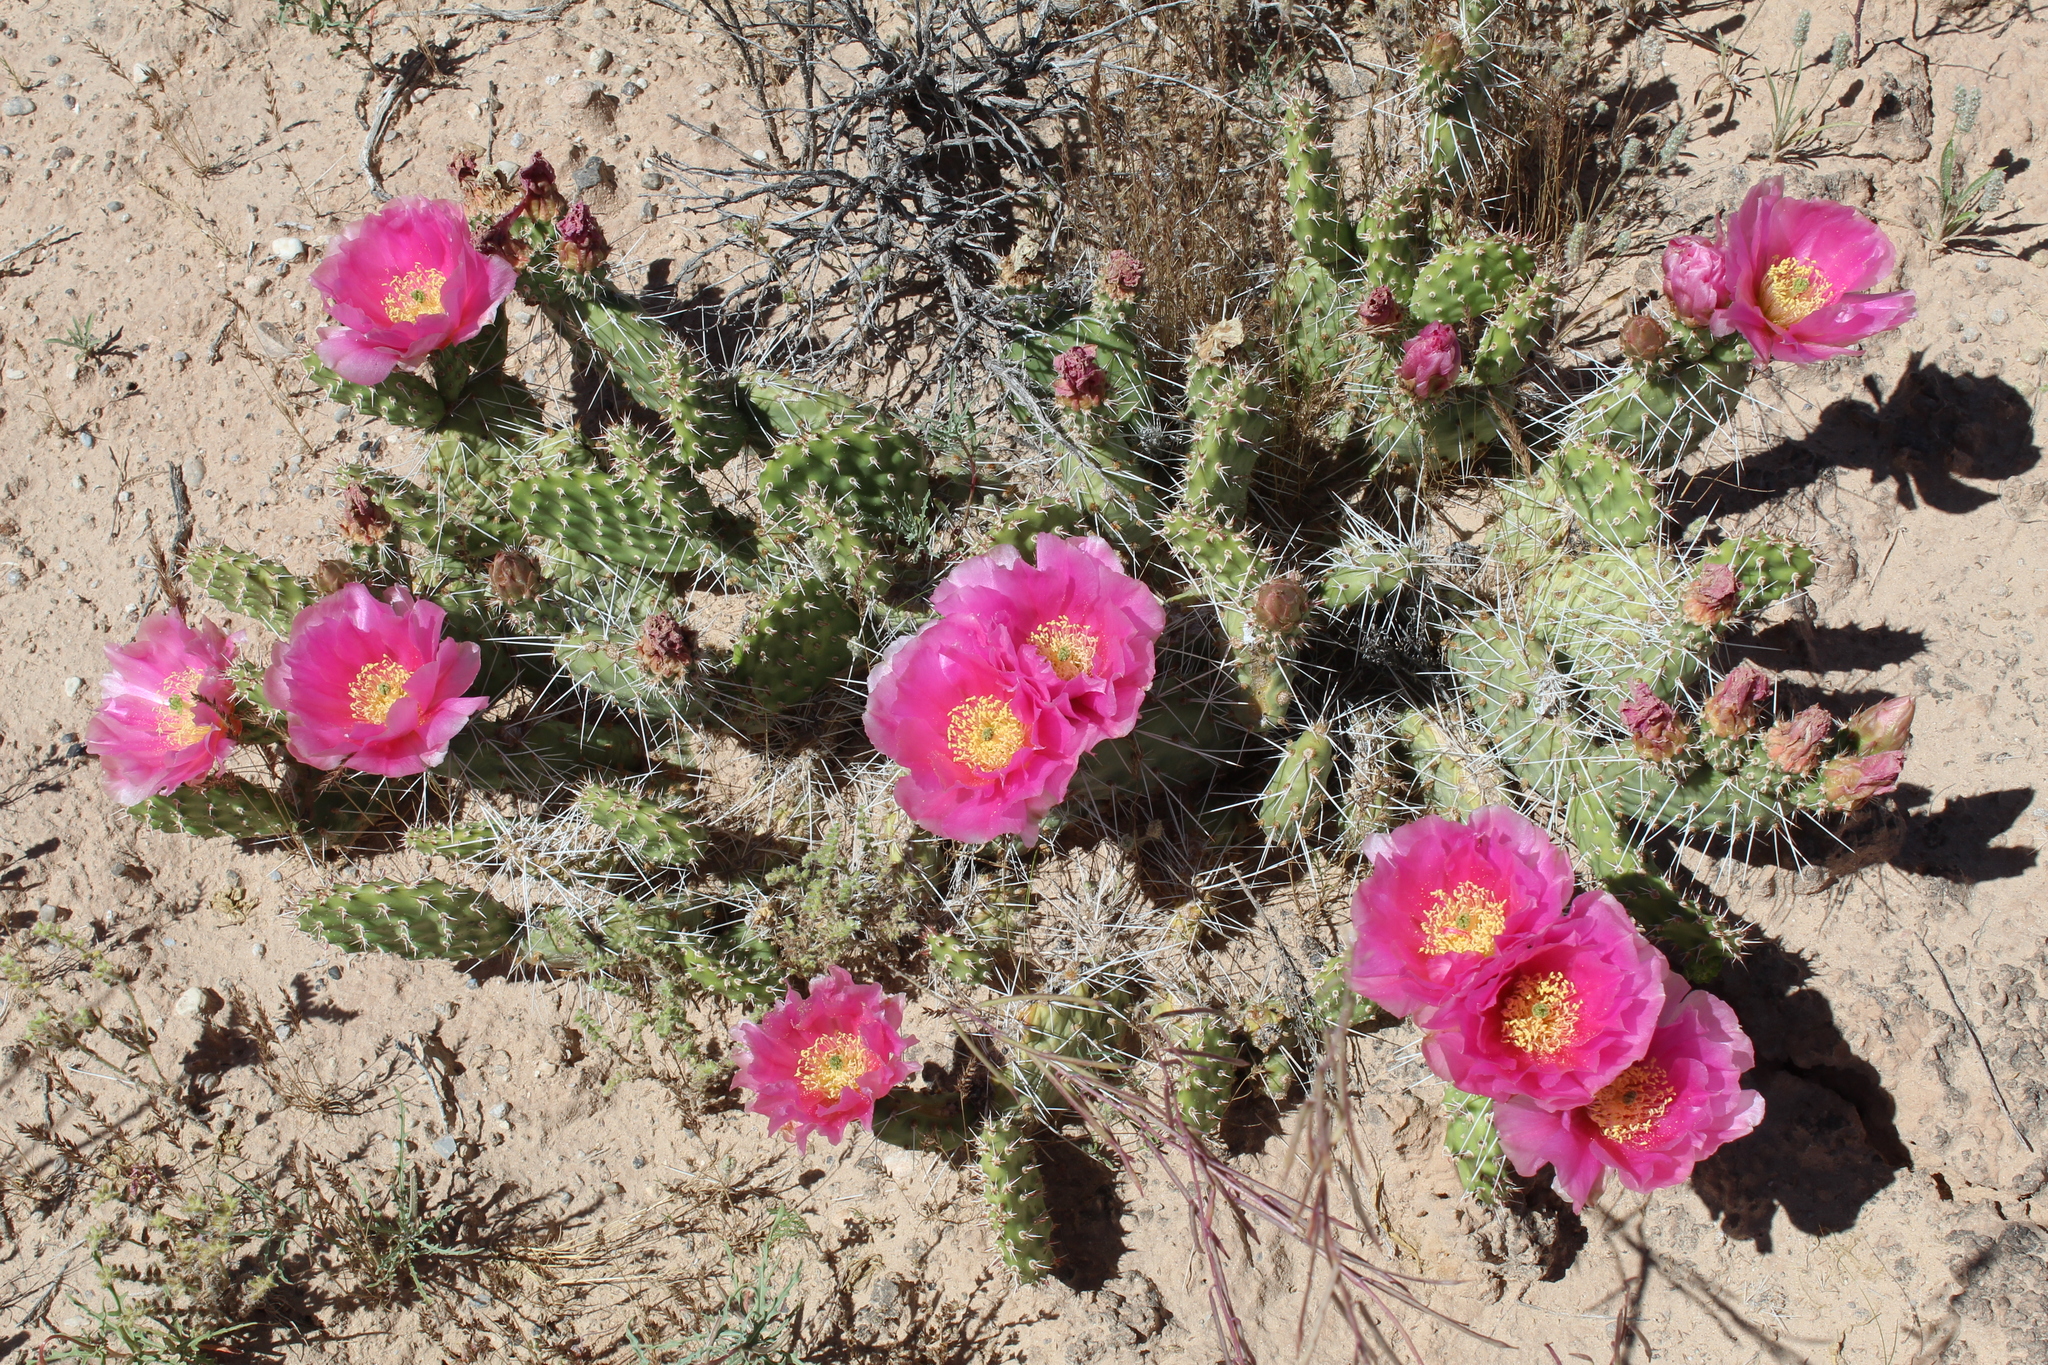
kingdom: Plantae
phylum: Tracheophyta
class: Magnoliopsida
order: Caryophyllales
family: Cactaceae
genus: Opuntia
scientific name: Opuntia polyacantha
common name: Plains prickly-pear
